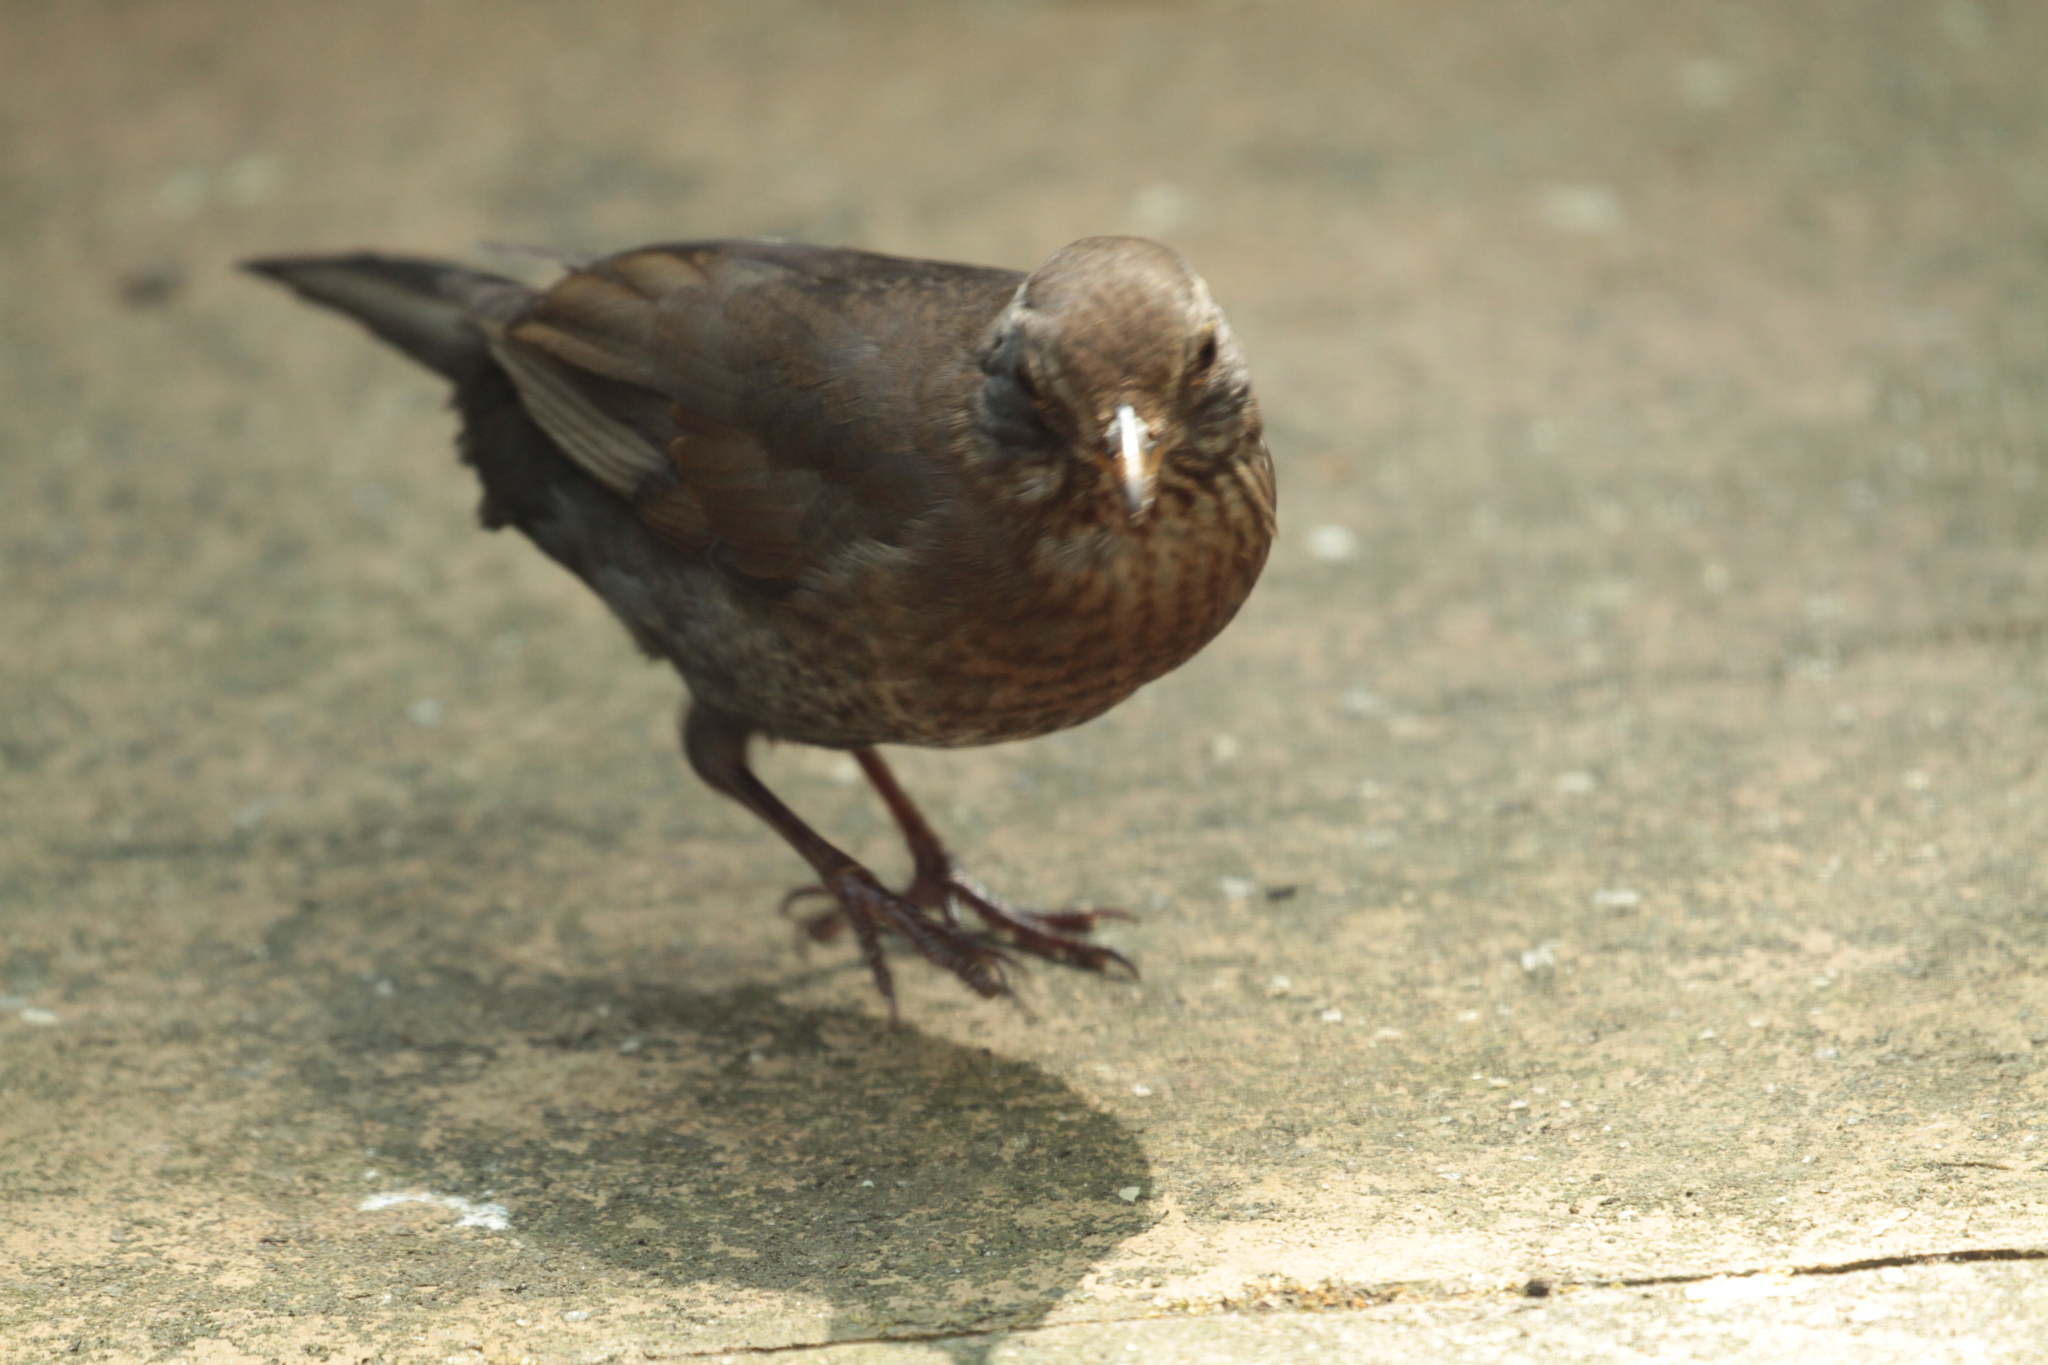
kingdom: Animalia
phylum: Chordata
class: Aves
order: Passeriformes
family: Turdidae
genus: Turdus
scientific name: Turdus merula
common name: Common blackbird
